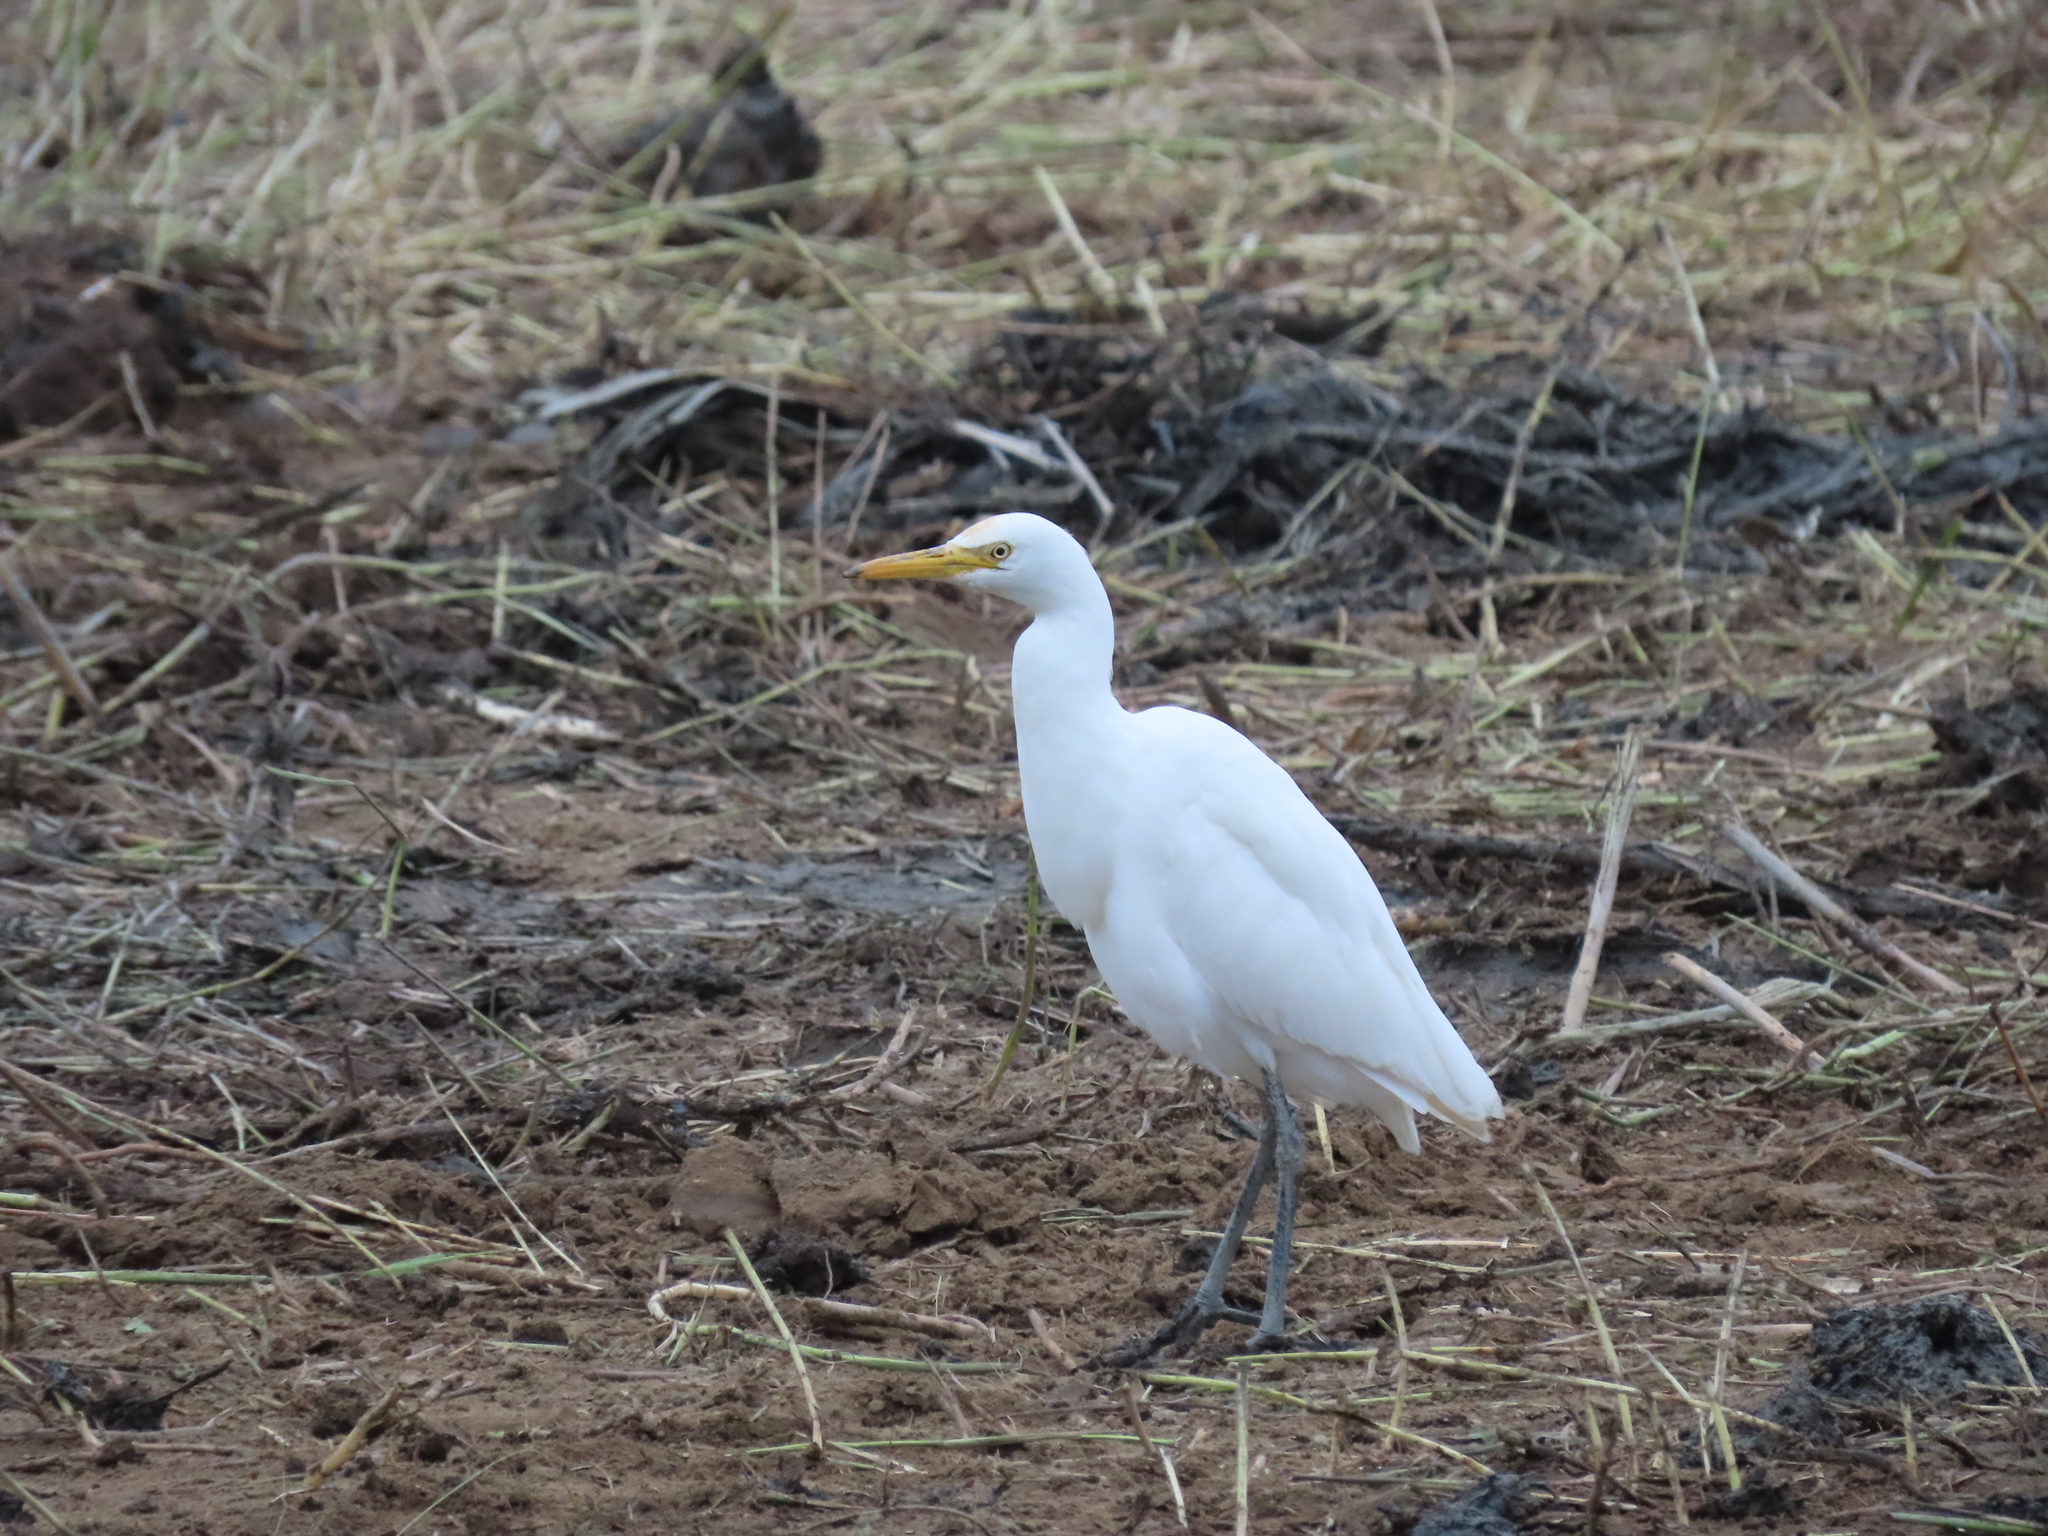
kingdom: Animalia
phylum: Chordata
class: Aves
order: Pelecaniformes
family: Ardeidae
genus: Bubulcus
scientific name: Bubulcus coromandus
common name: Eastern cattle egret
